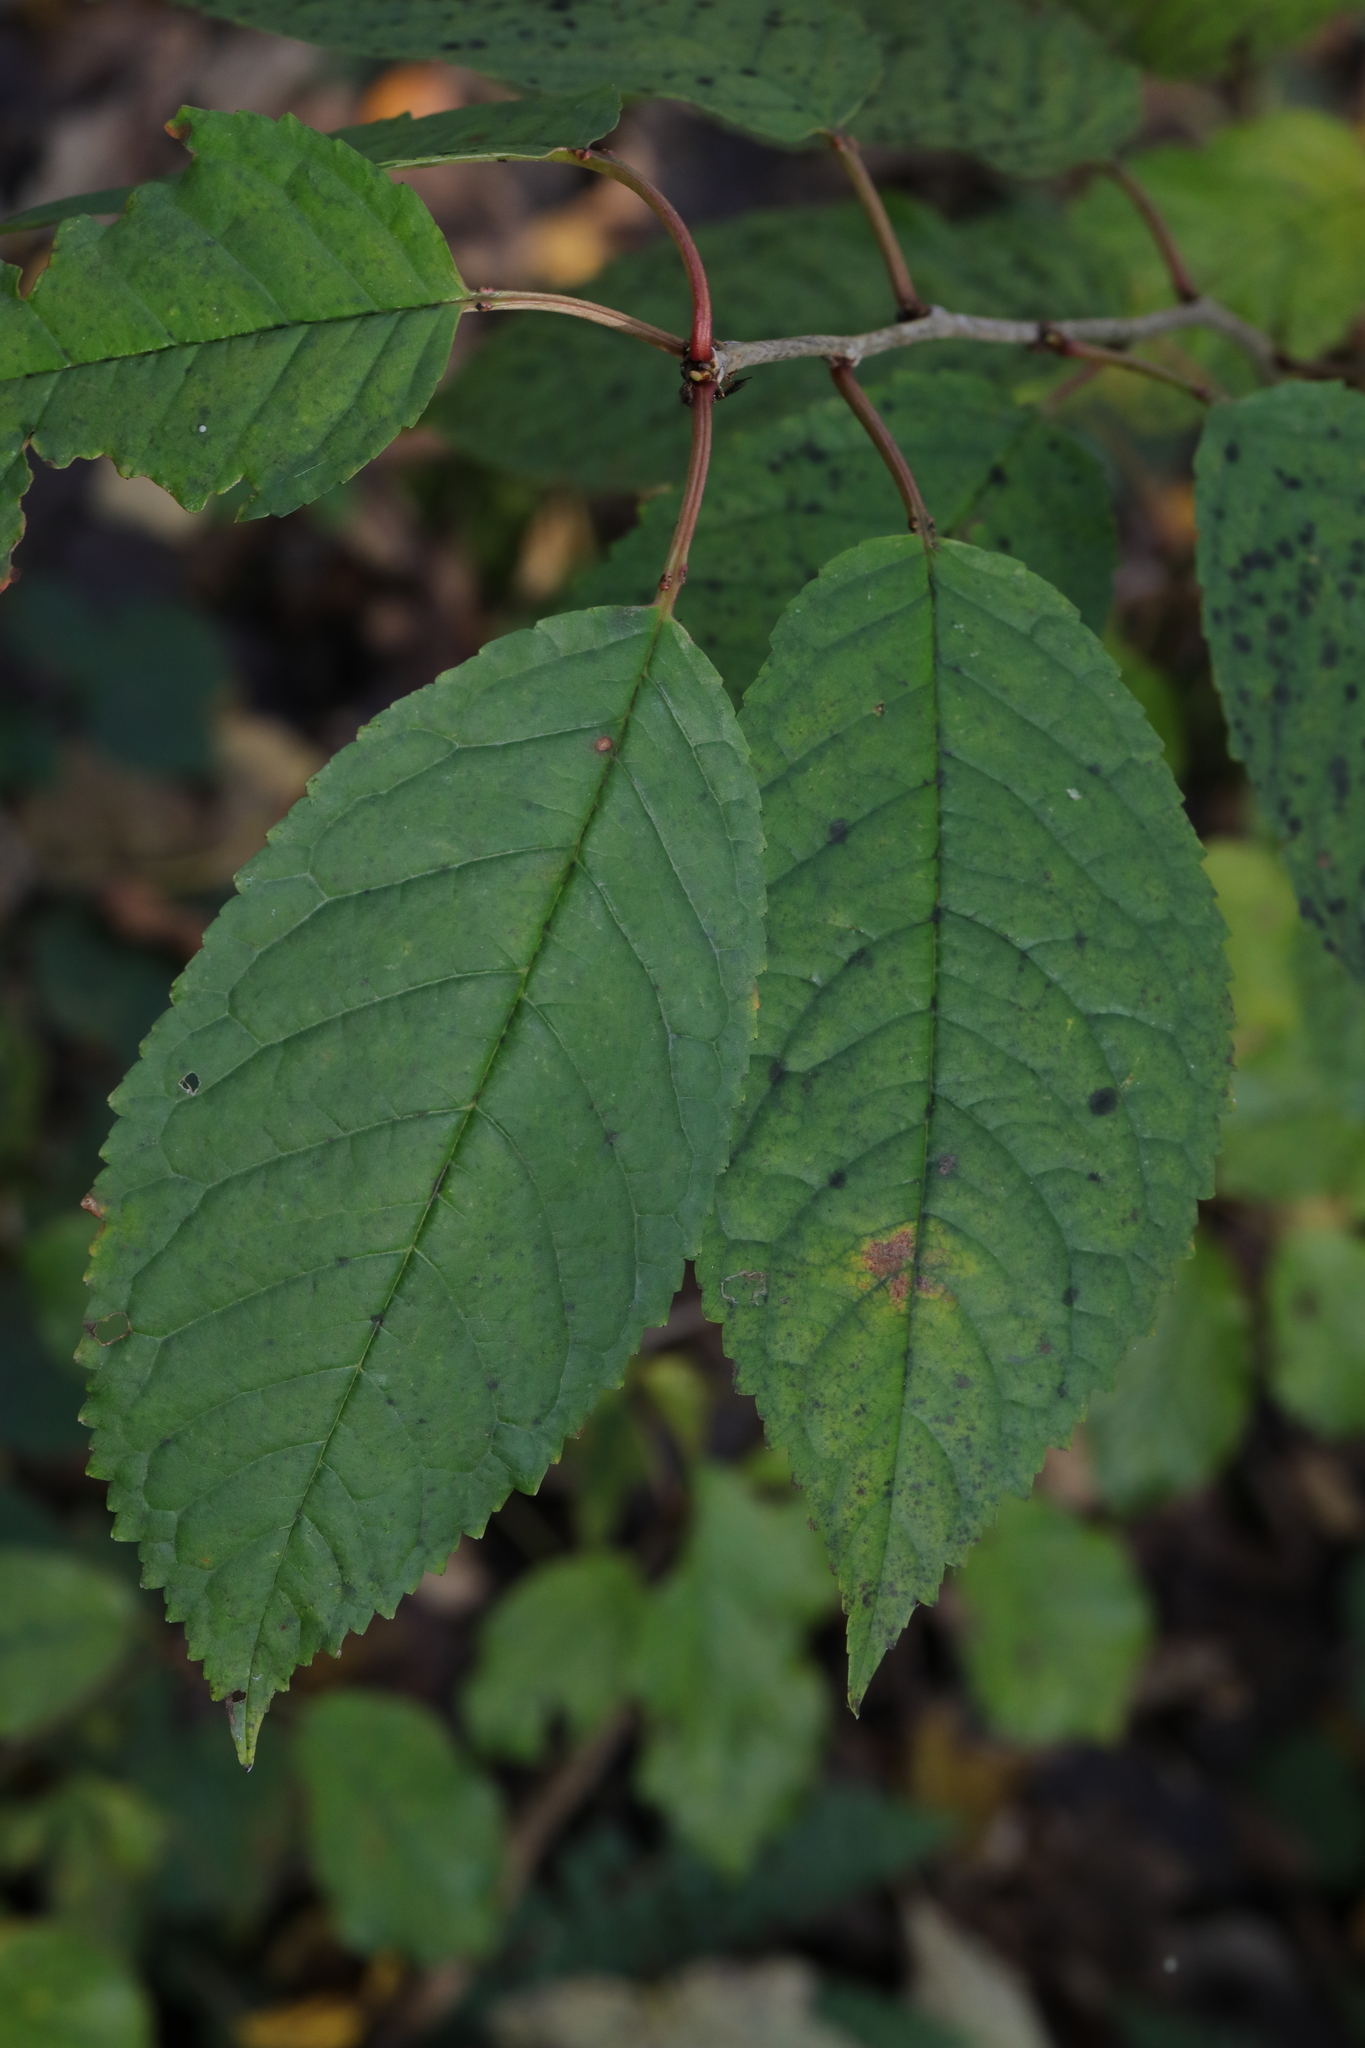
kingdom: Plantae
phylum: Tracheophyta
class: Magnoliopsida
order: Rosales
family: Rosaceae
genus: Prunus
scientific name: Prunus avium
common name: Sweet cherry
